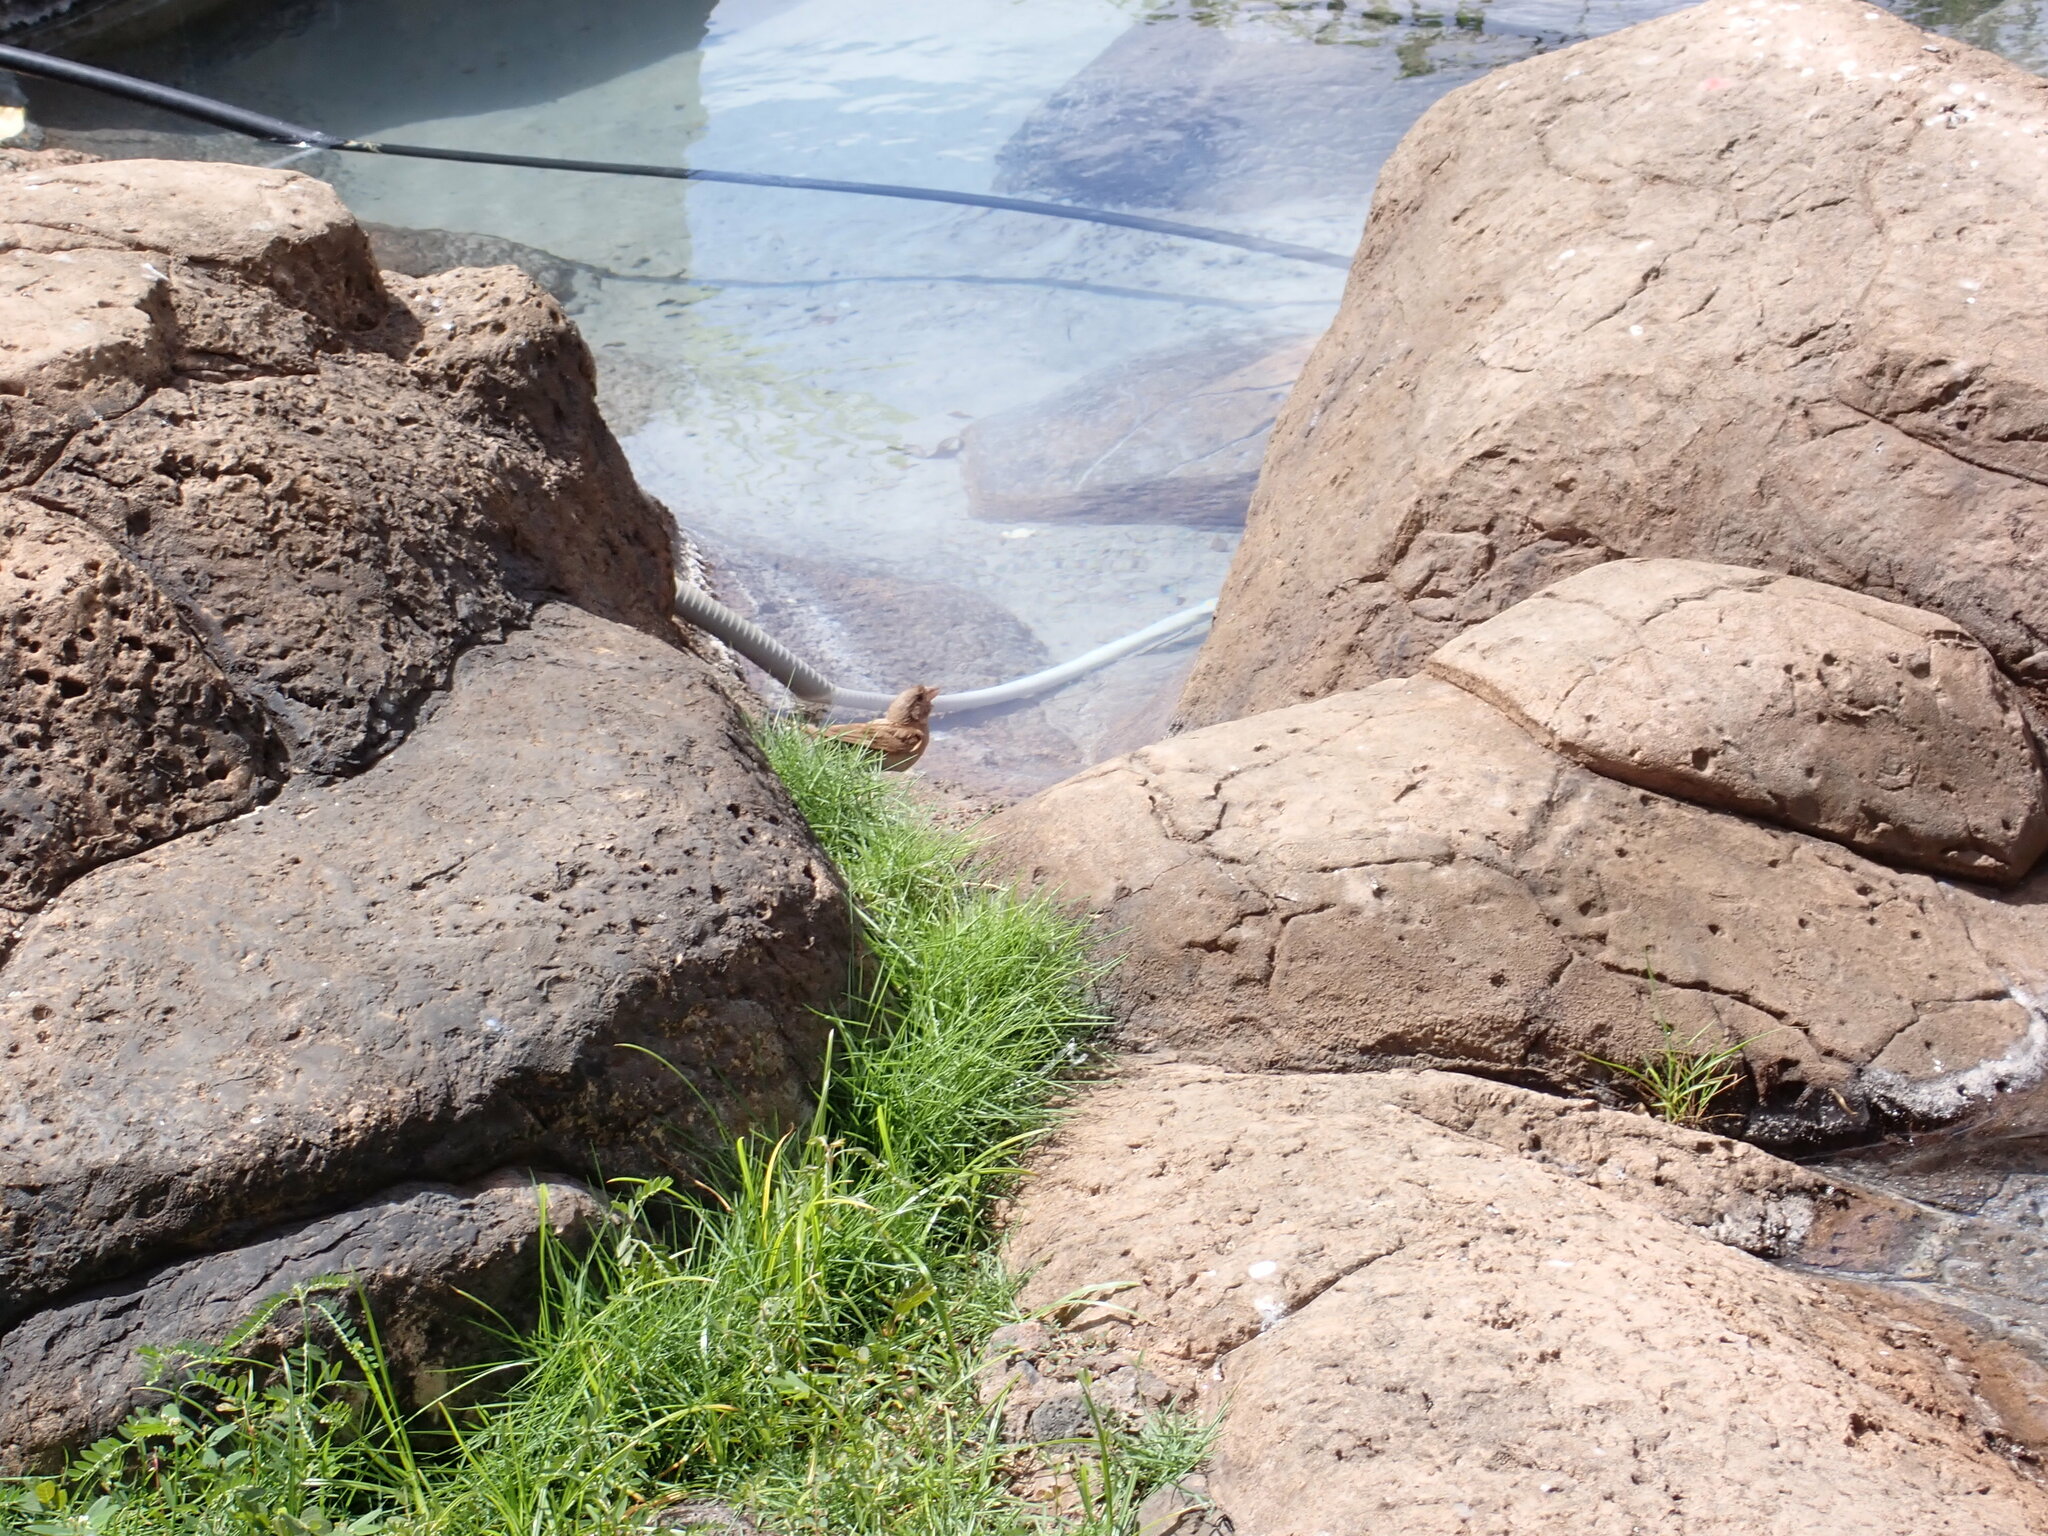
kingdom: Animalia
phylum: Chordata
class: Aves
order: Passeriformes
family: Passeridae
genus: Passer
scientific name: Passer domesticus
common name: House sparrow
